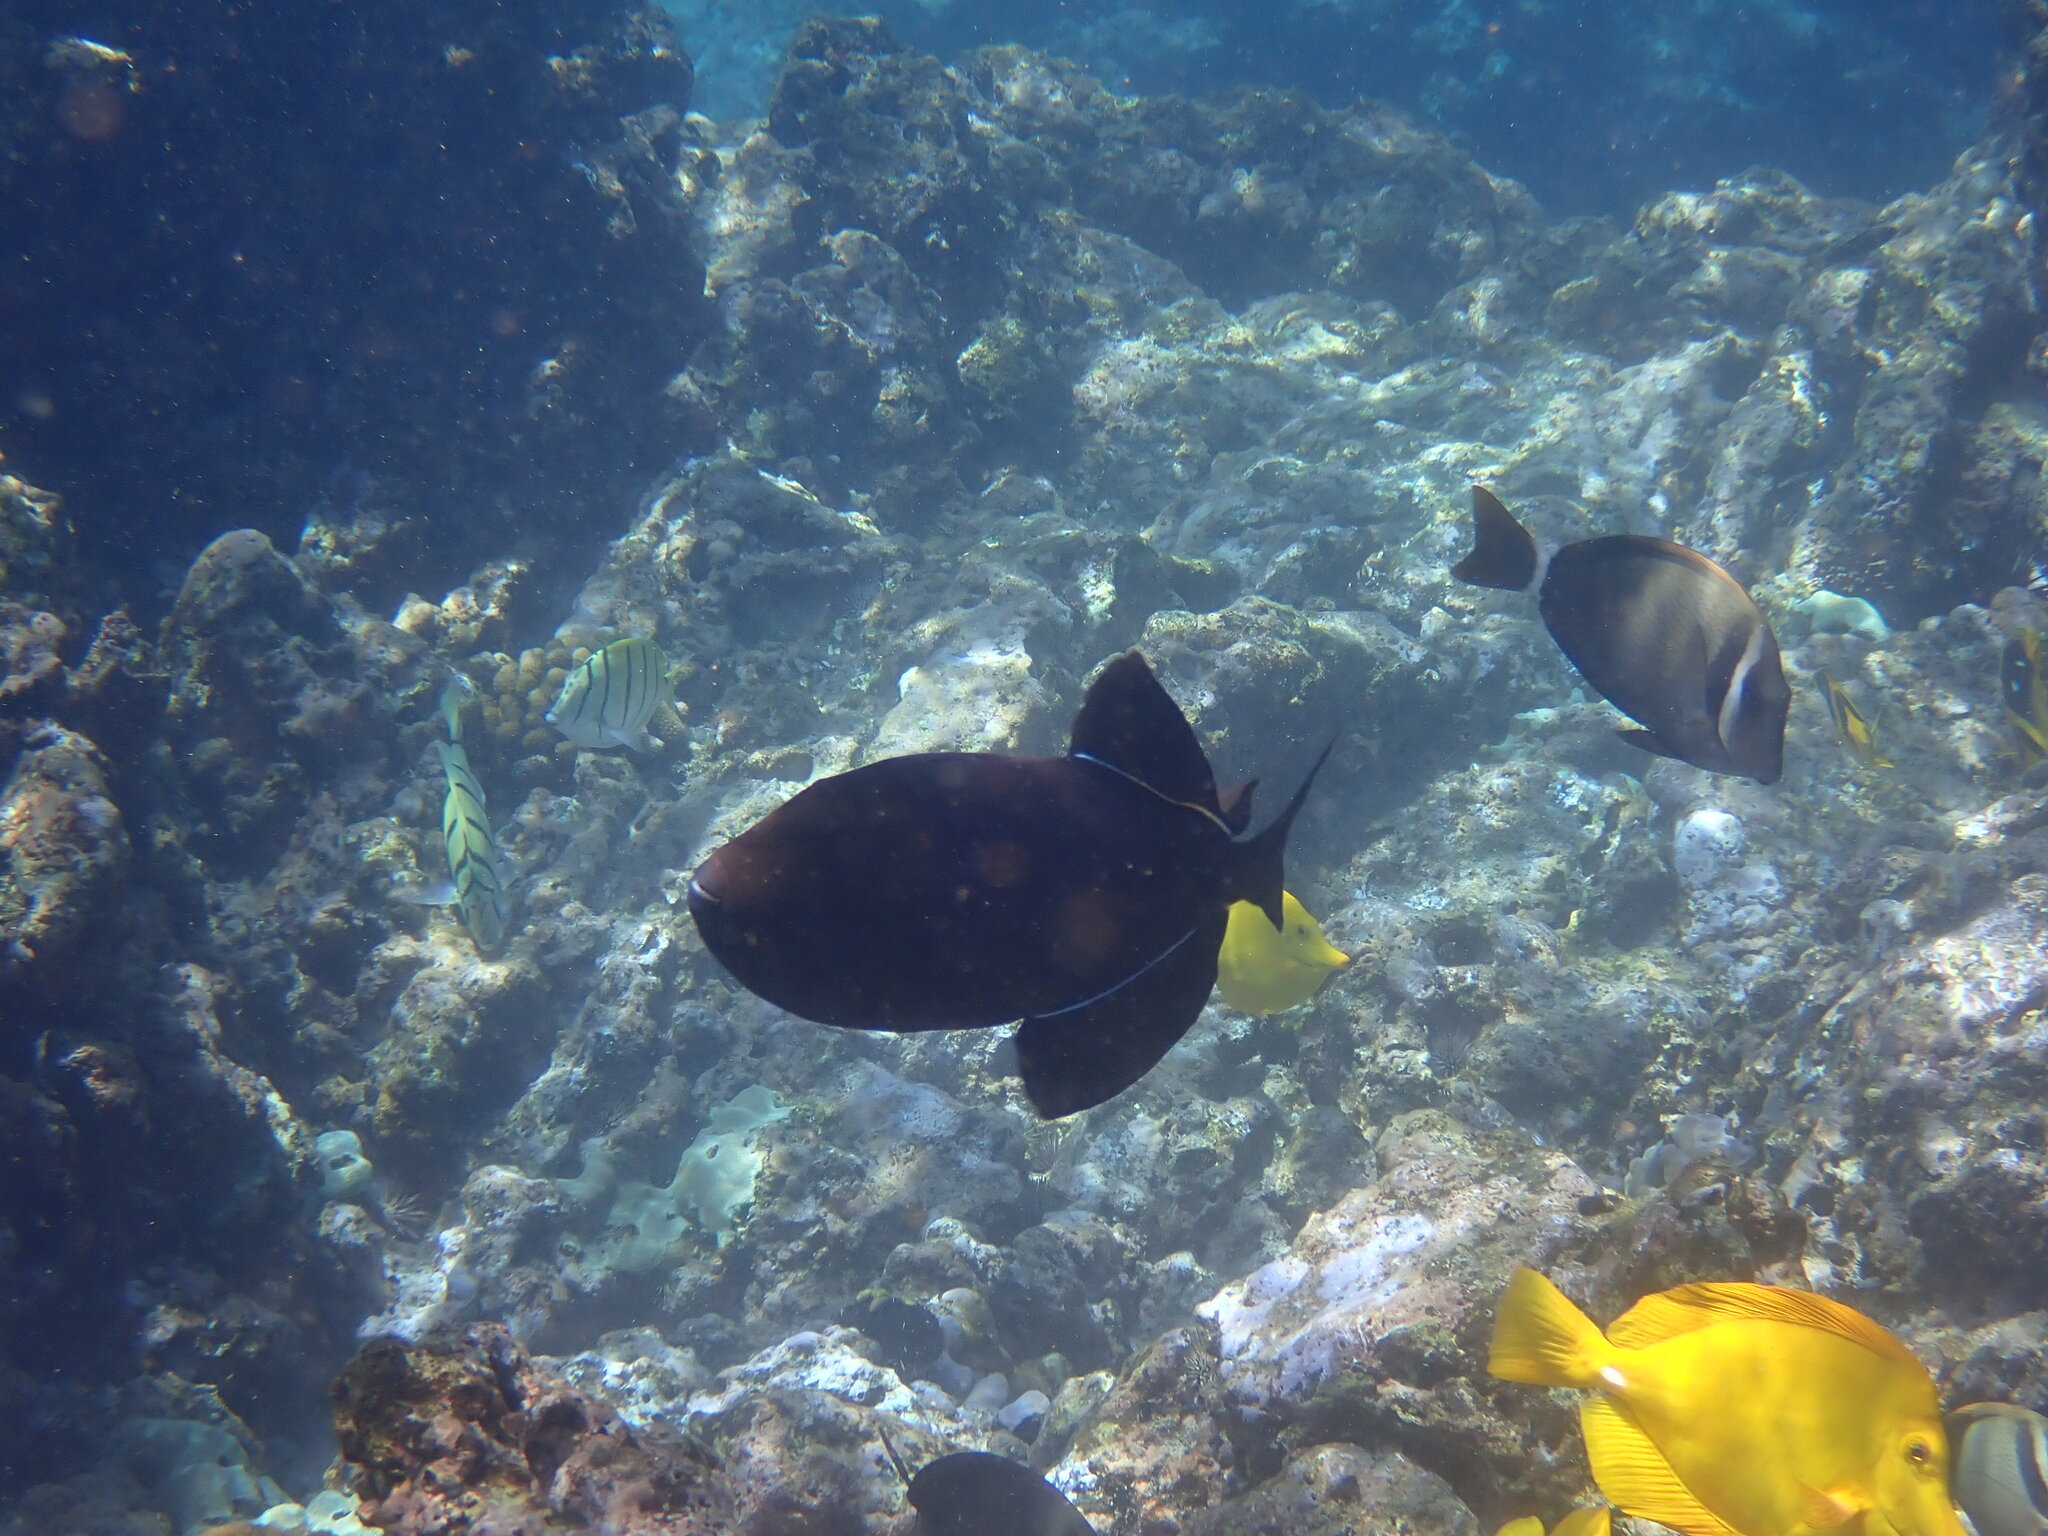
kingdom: Animalia
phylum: Chordata
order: Tetraodontiformes
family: Balistidae
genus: Melichthys
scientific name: Melichthys niger
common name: Black durgon
